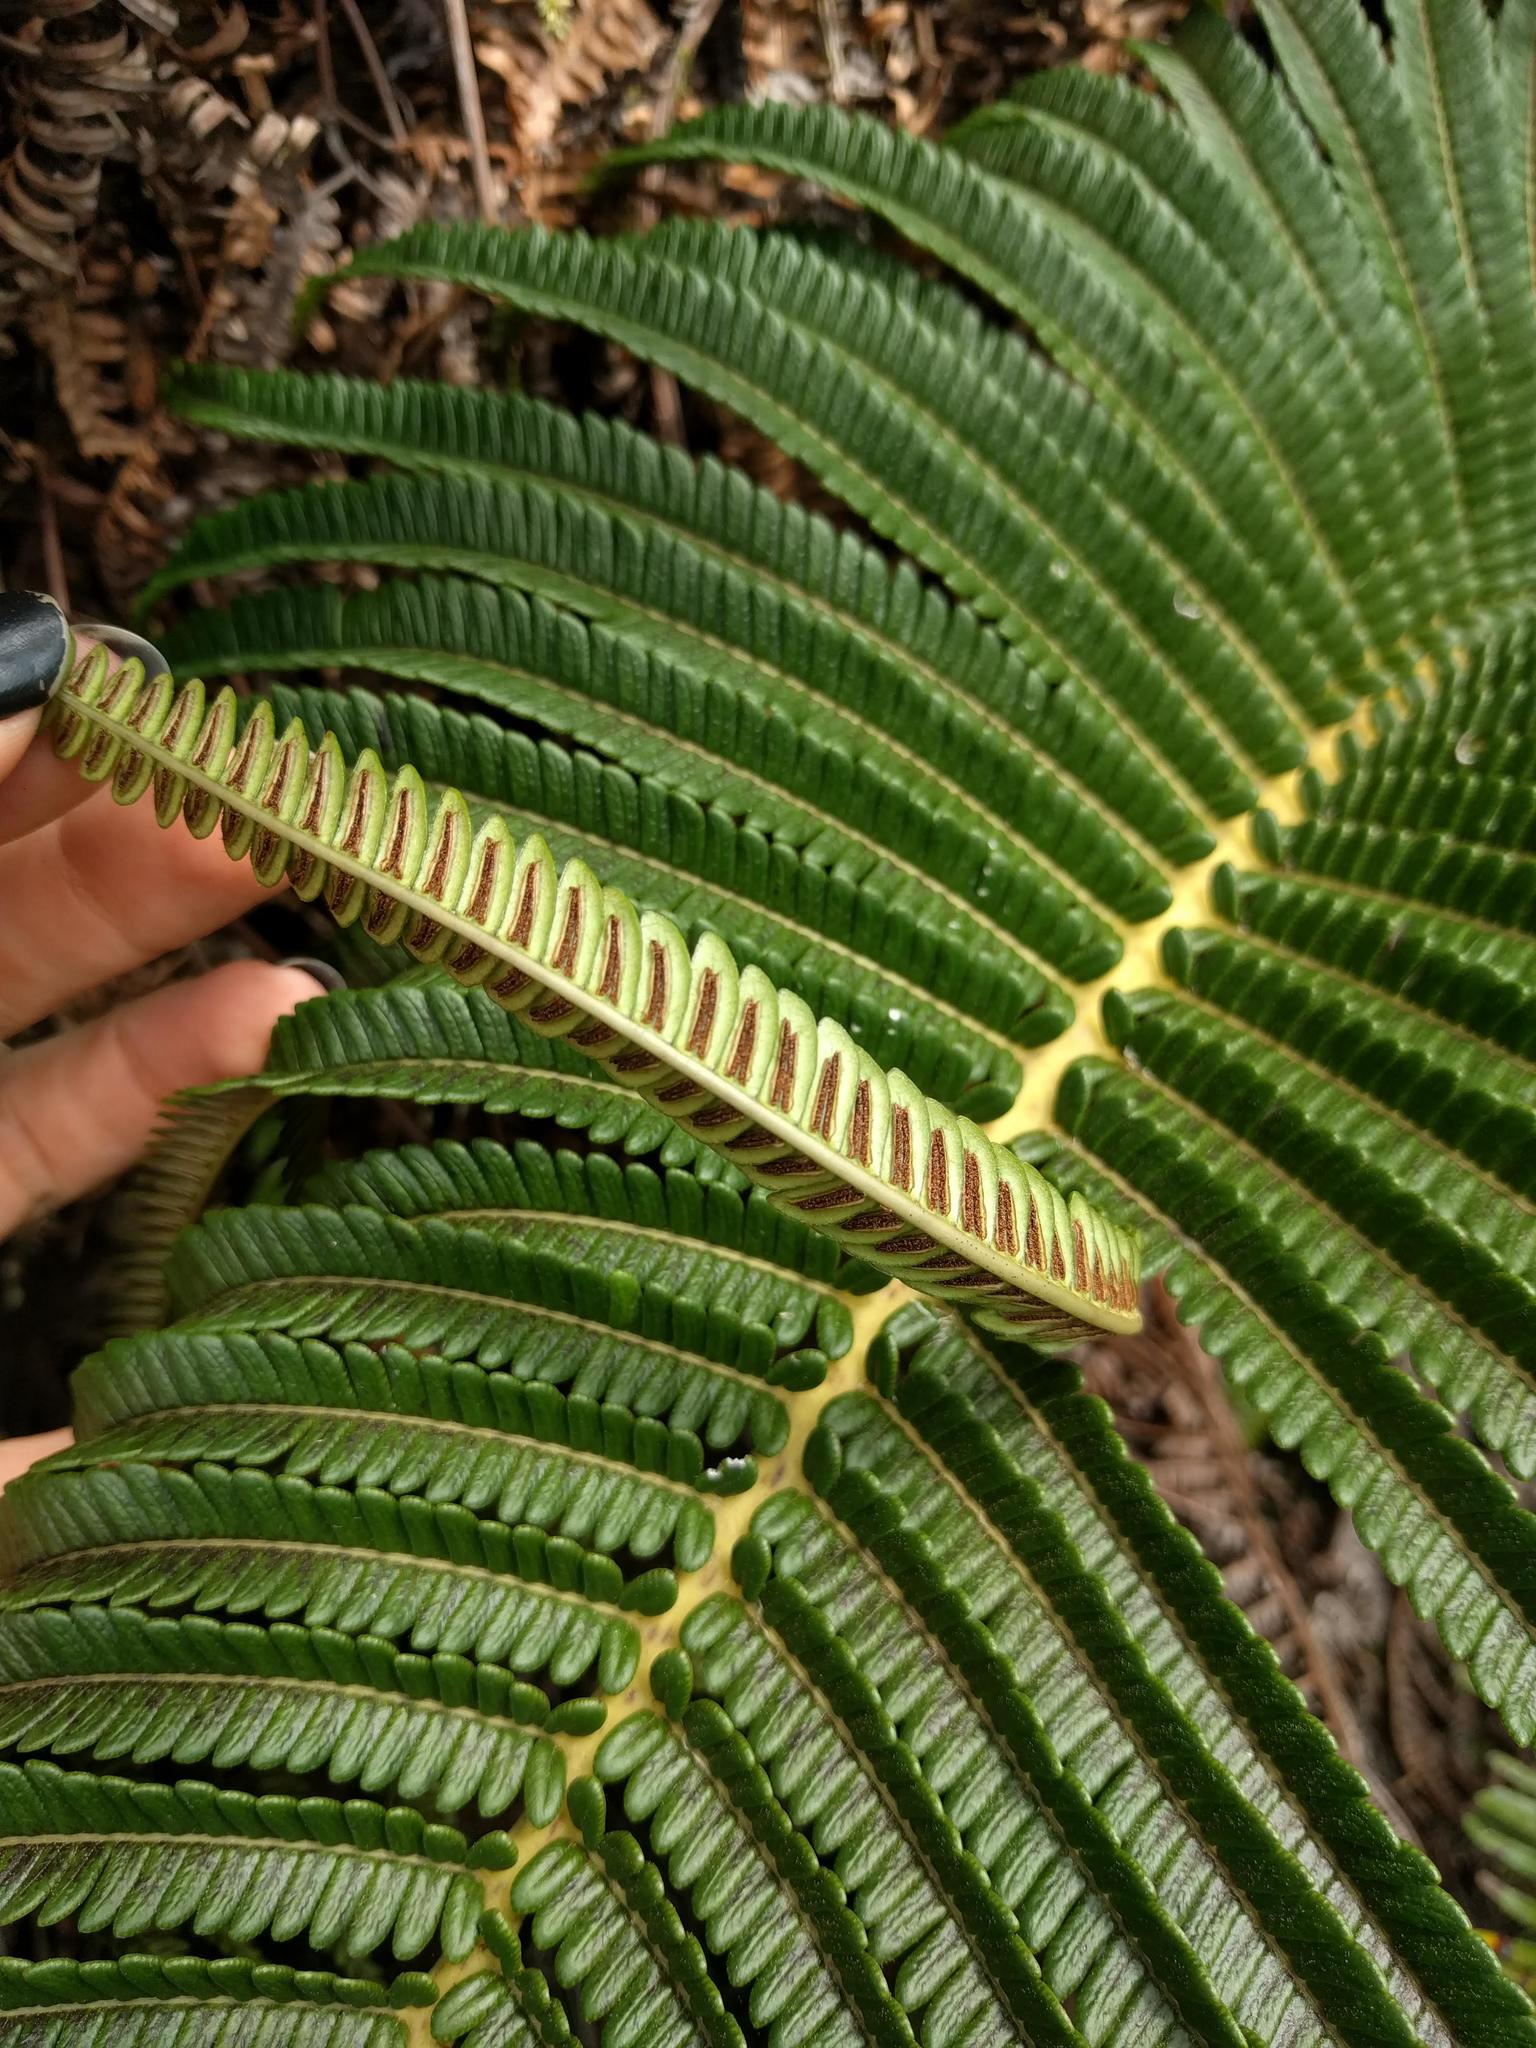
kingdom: Plantae
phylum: Tracheophyta
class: Polypodiopsida
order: Polypodiales
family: Blechnaceae
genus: Sadleria
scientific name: Sadleria cyatheoides
